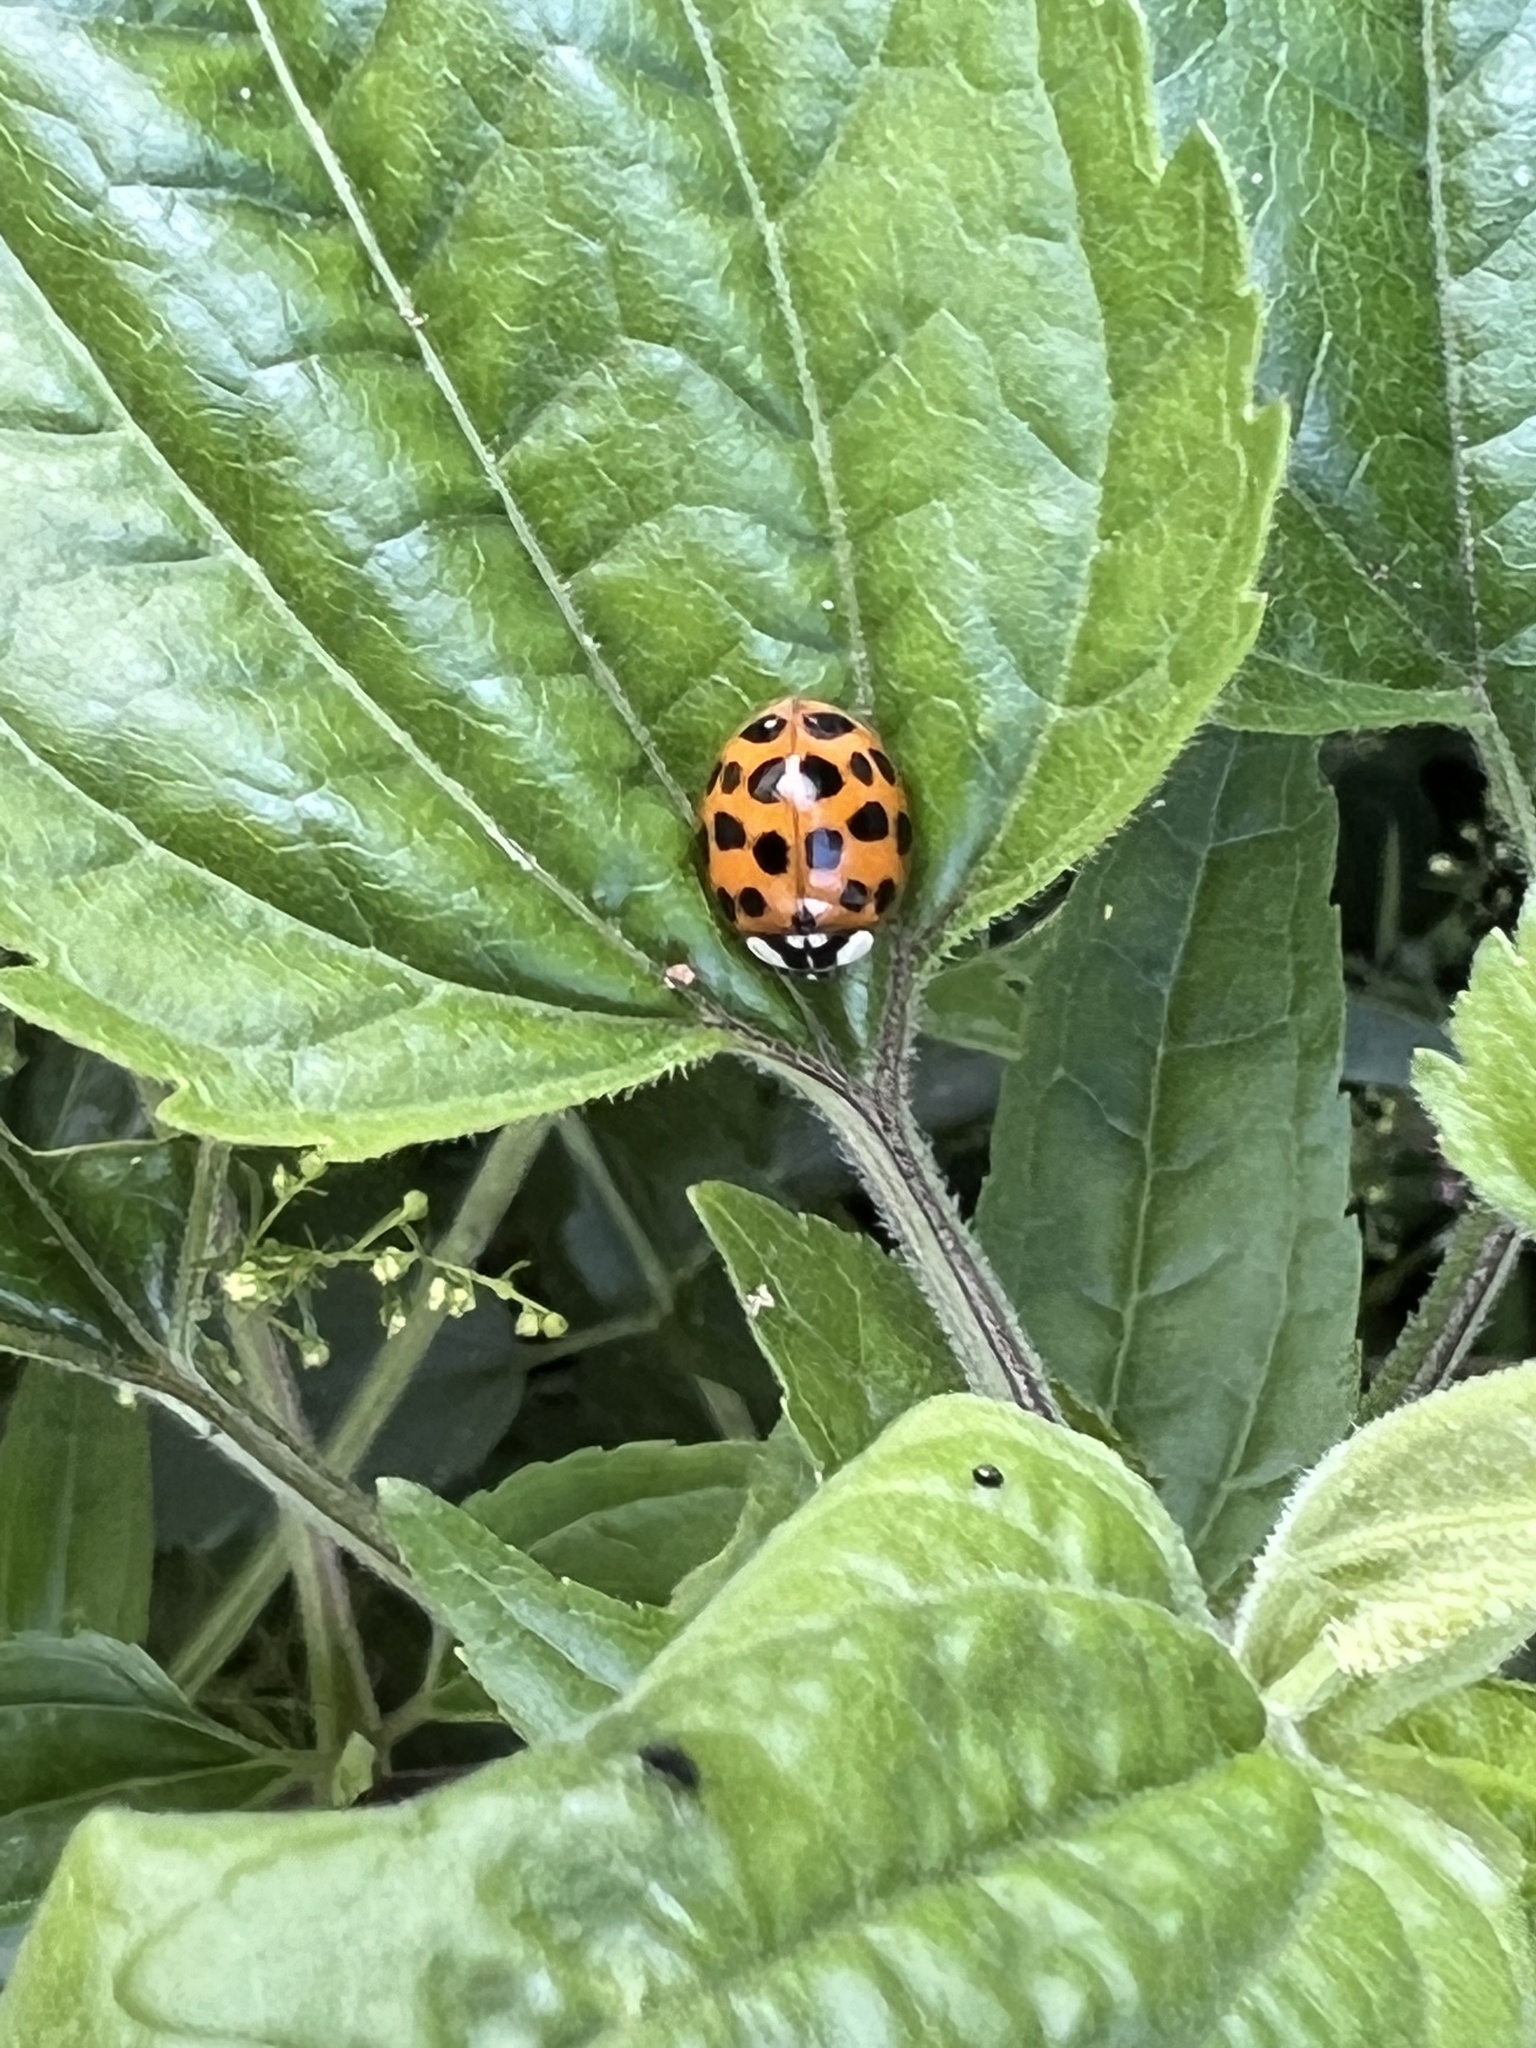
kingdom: Animalia
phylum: Arthropoda
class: Insecta
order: Coleoptera
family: Coccinellidae
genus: Harmonia
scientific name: Harmonia axyridis
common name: Harlequin ladybird
